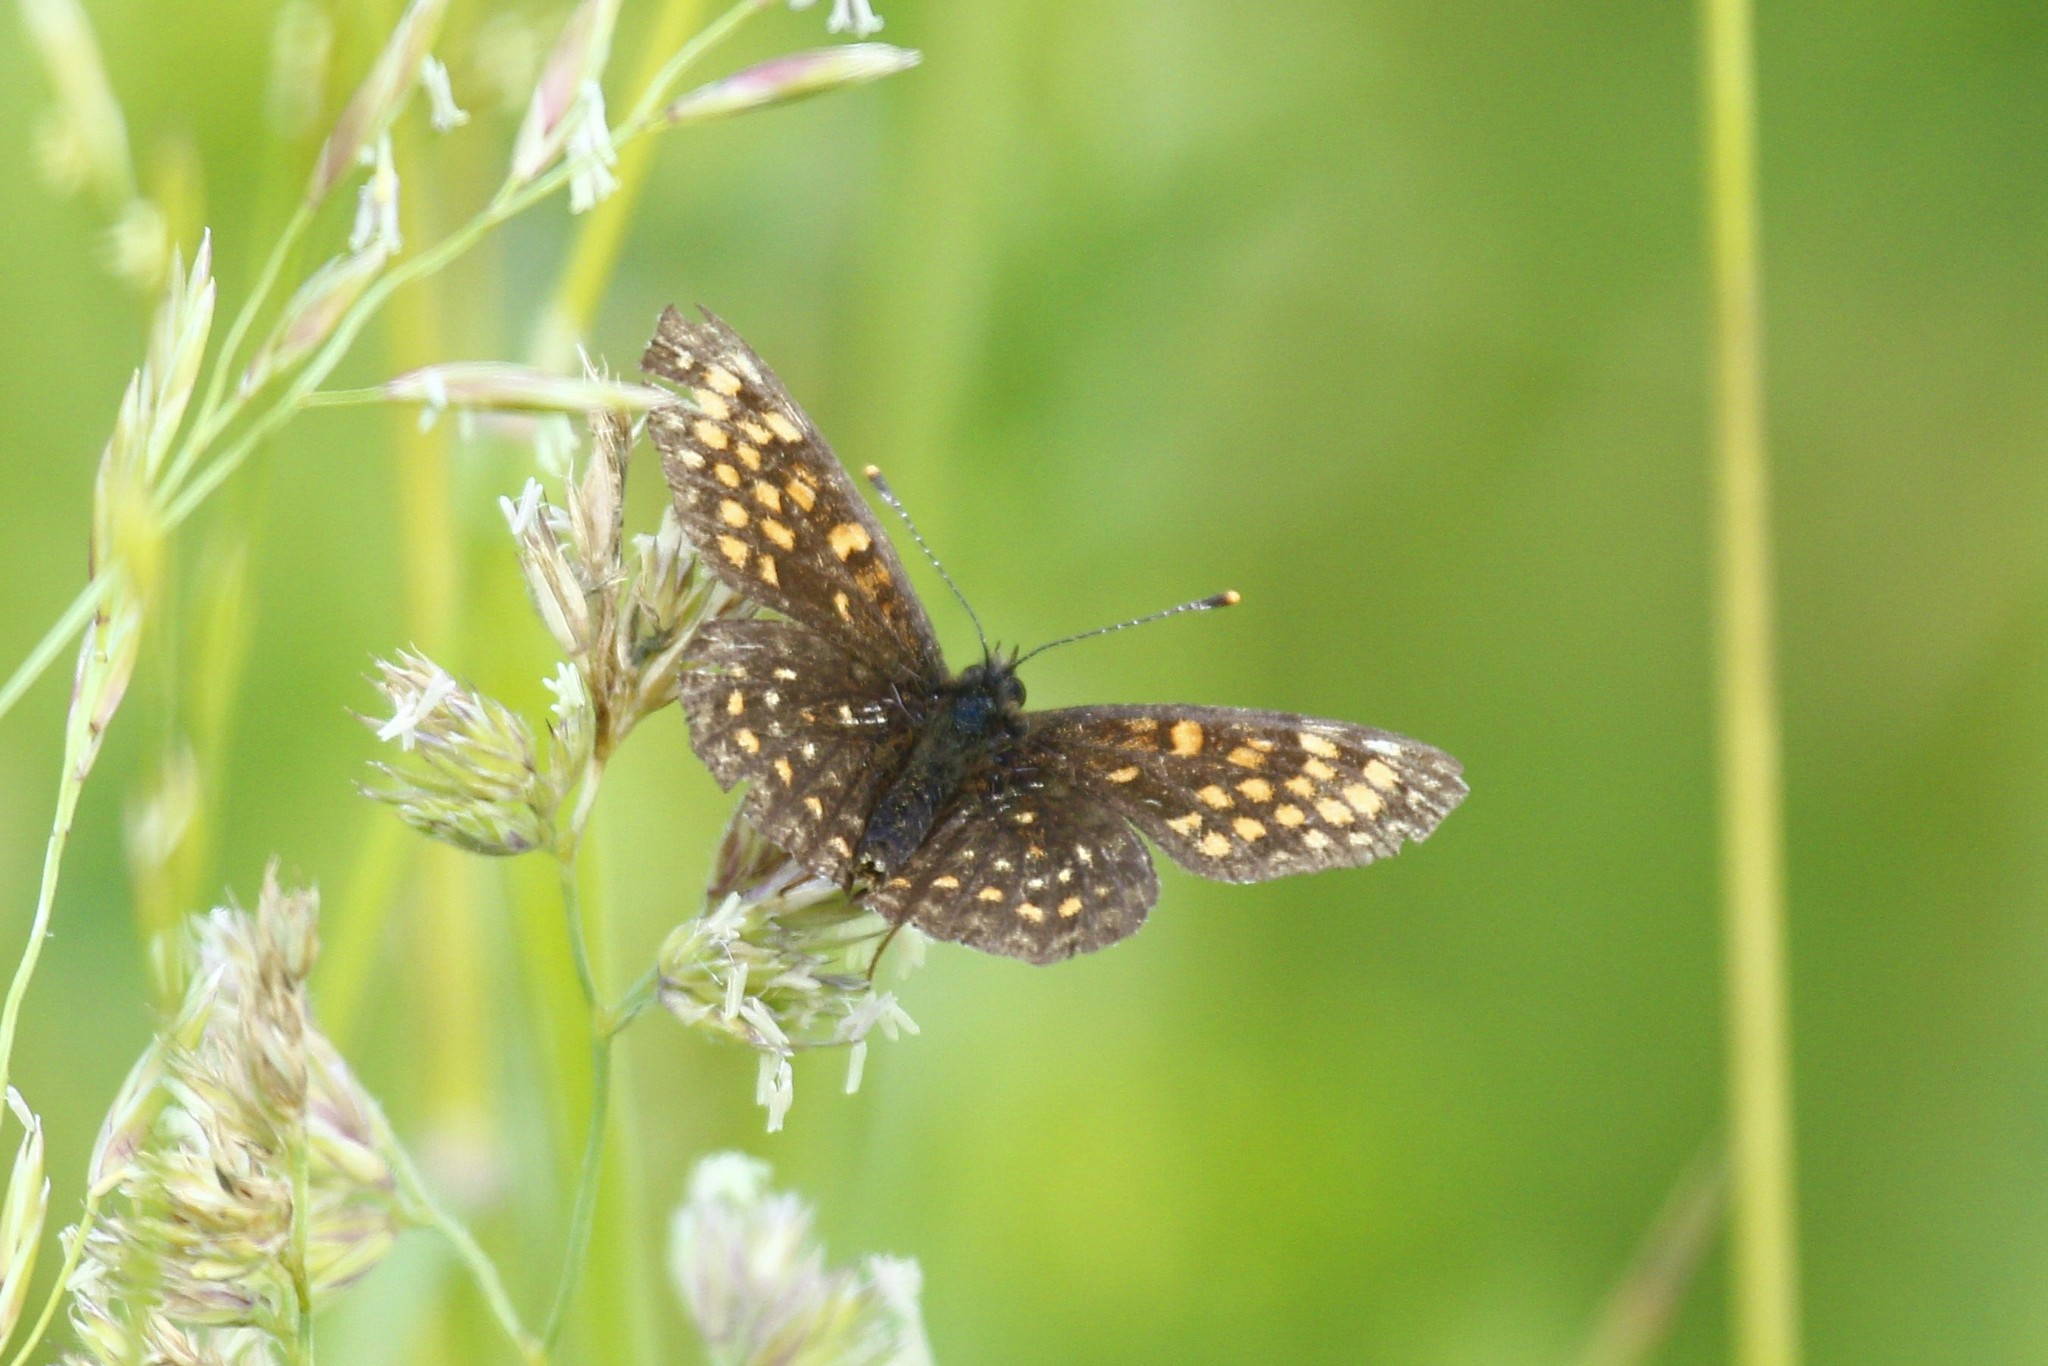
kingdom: Animalia
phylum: Arthropoda
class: Insecta
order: Lepidoptera
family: Nymphalidae
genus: Melitaea
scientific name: Melitaea diamina
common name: False heath fritillary
